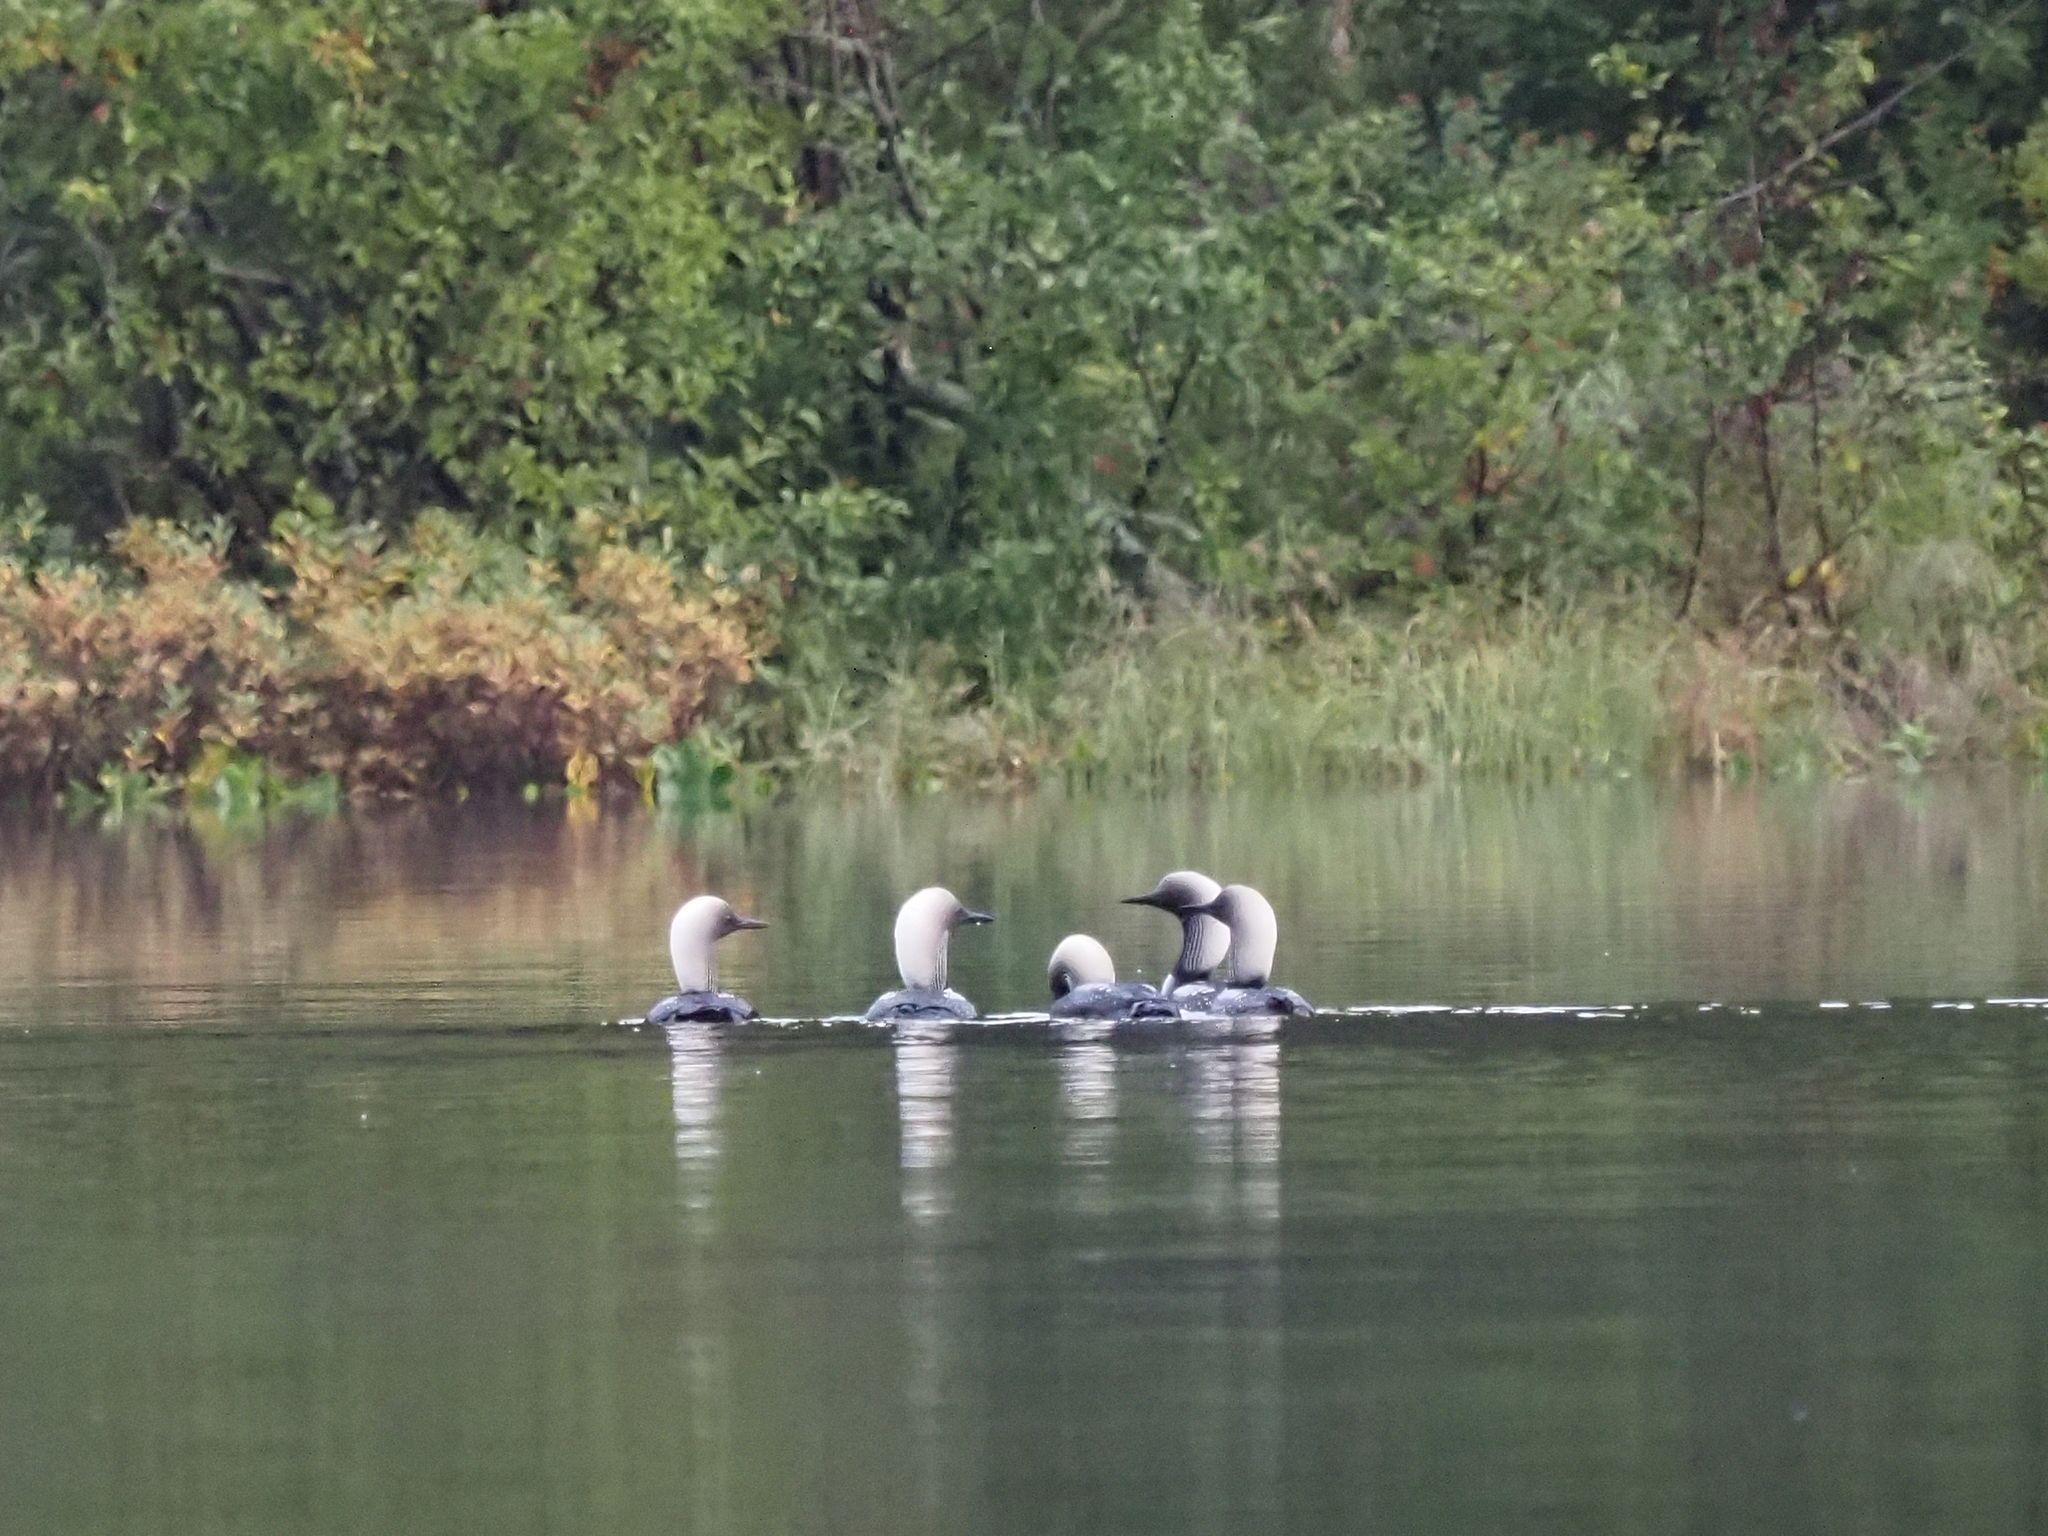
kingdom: Animalia
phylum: Chordata
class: Aves
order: Gaviiformes
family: Gaviidae
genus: Gavia
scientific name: Gavia pacifica
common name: Pacific loon
